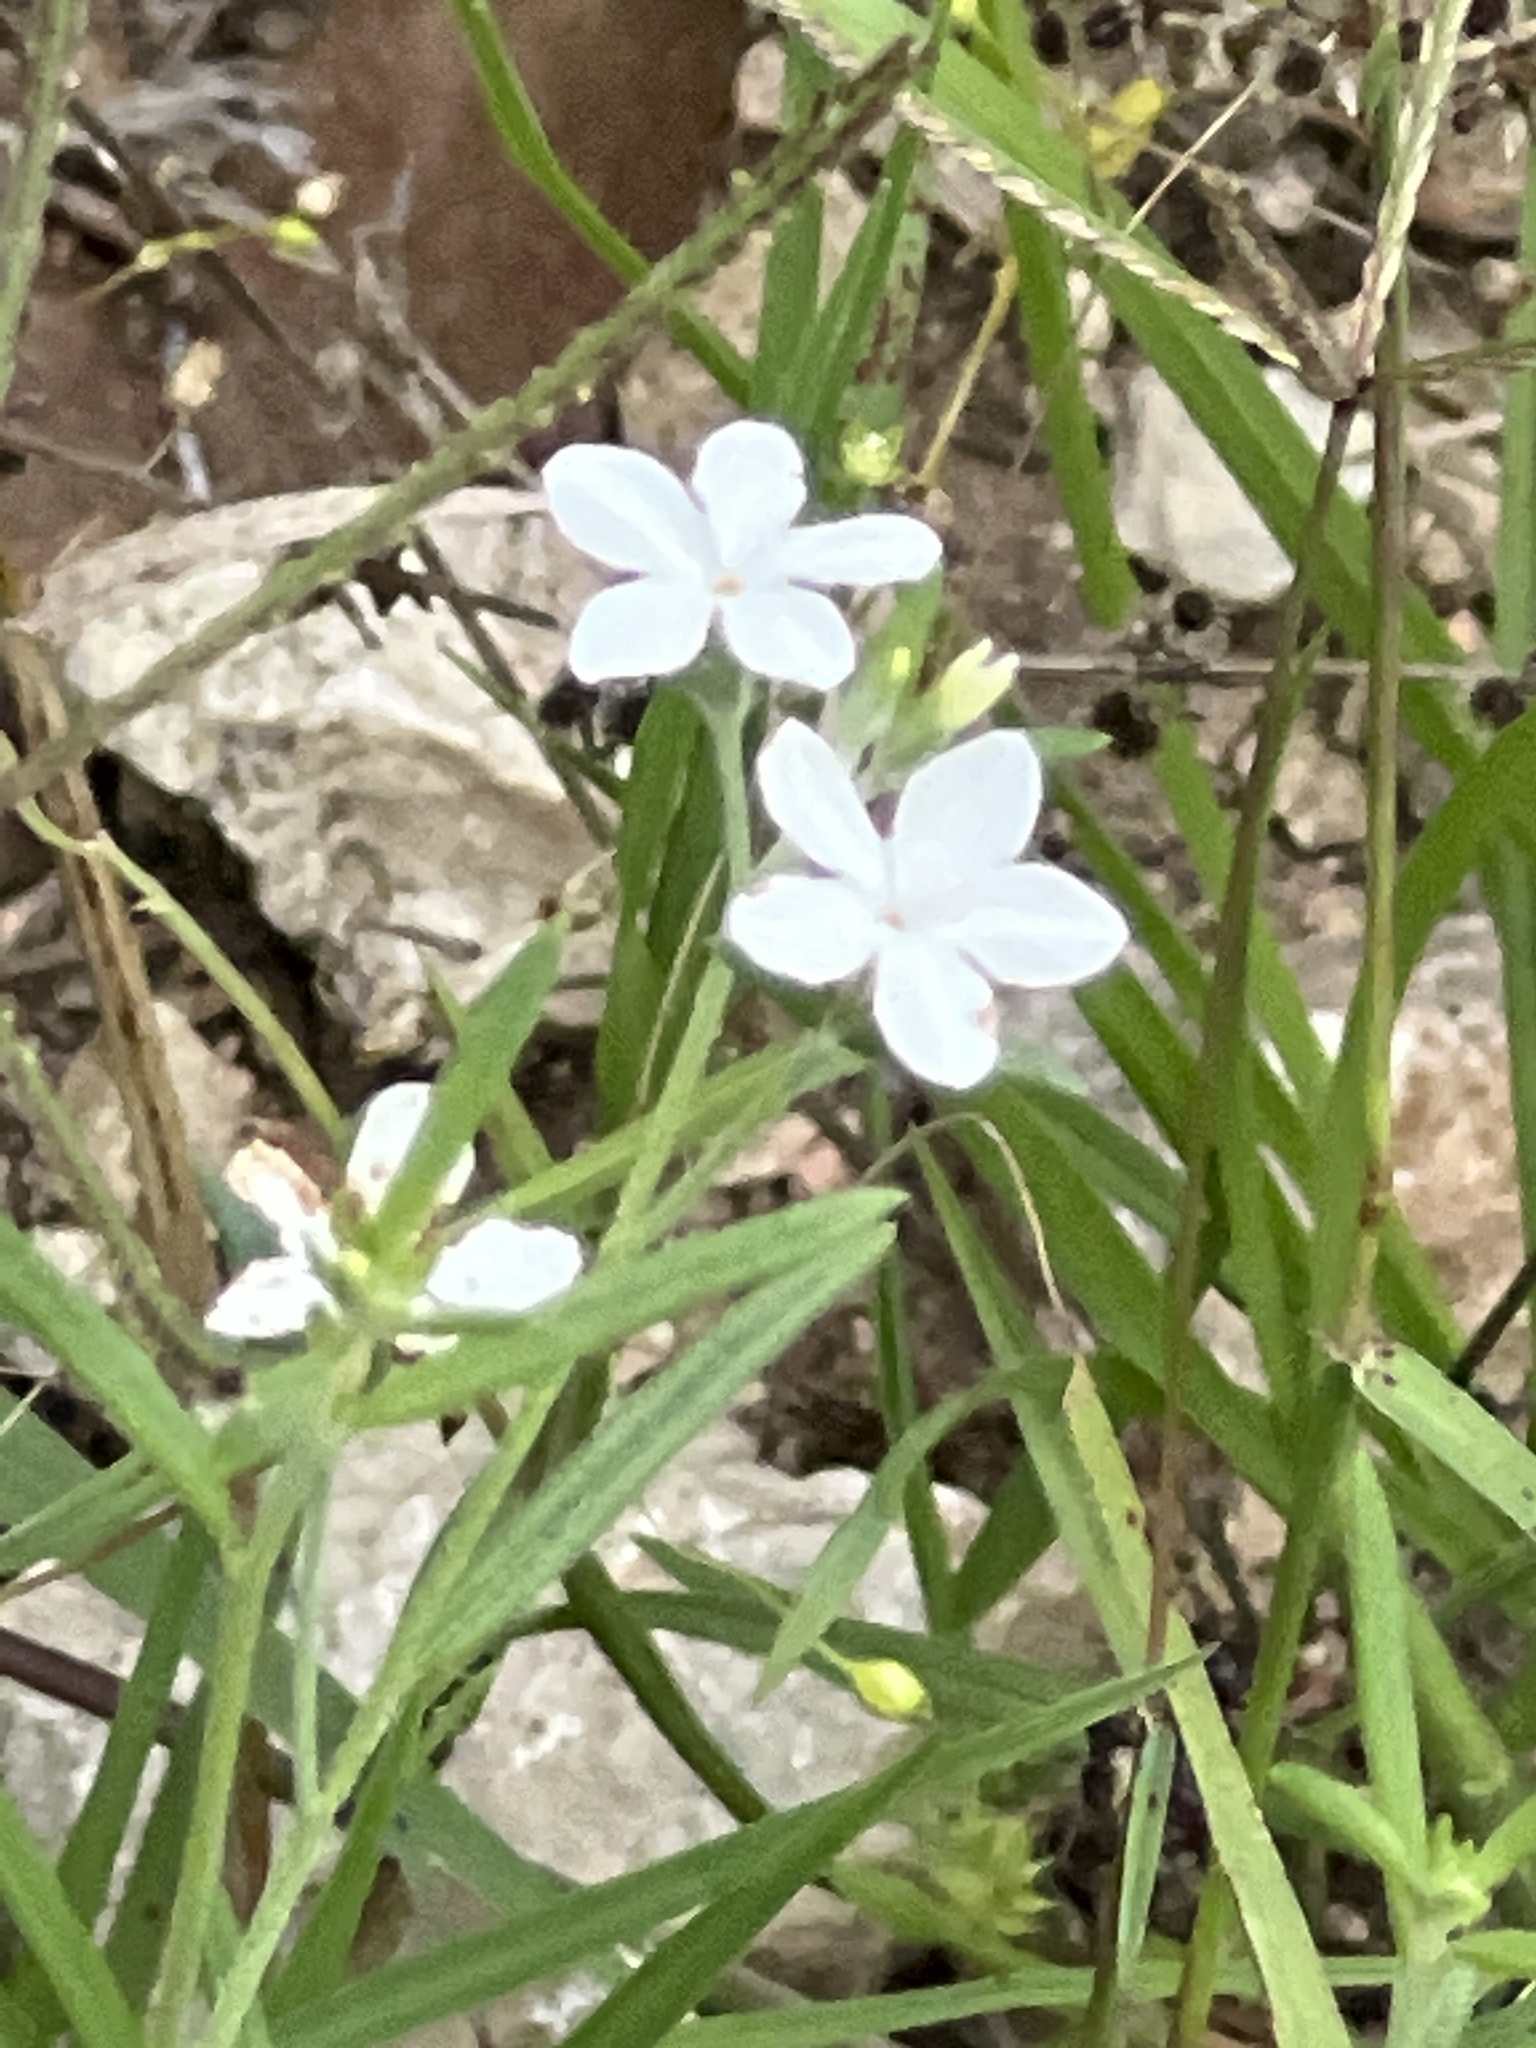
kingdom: Plantae
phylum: Tracheophyta
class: Magnoliopsida
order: Boraginales
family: Heliotropiaceae
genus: Euploca
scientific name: Euploca tenella
